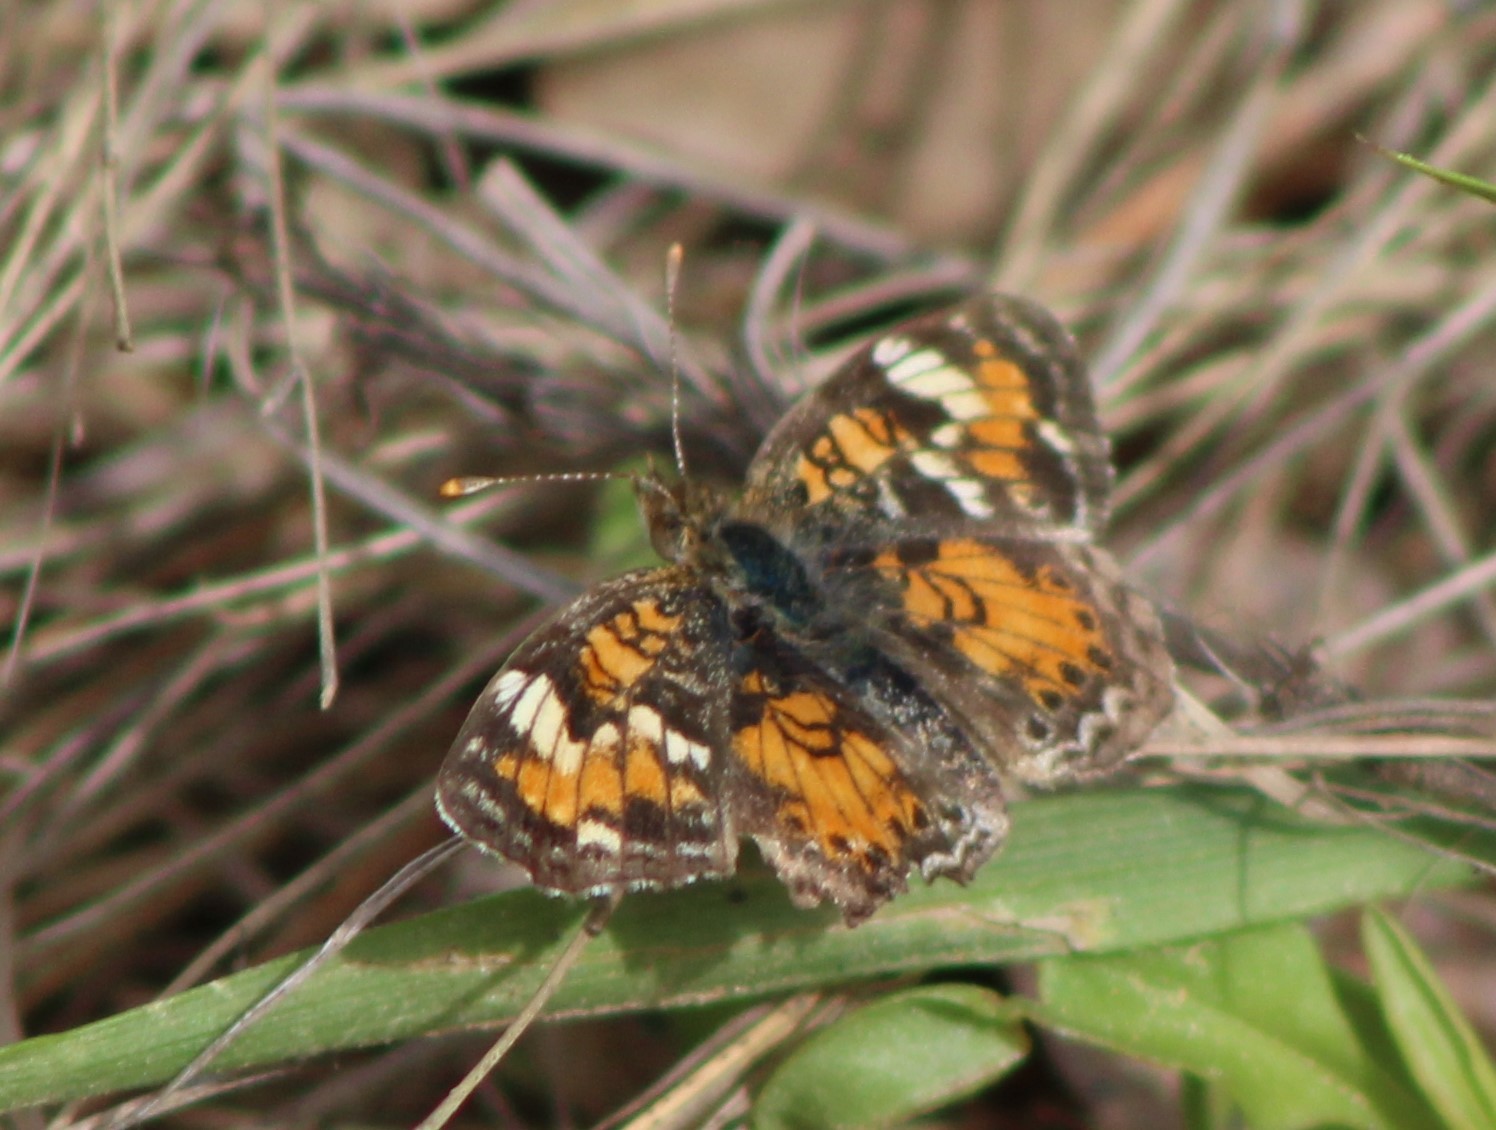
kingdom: Animalia
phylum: Arthropoda
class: Insecta
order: Lepidoptera
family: Nymphalidae
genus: Phyciodes
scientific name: Phyciodes phaon
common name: Phaon crescent
